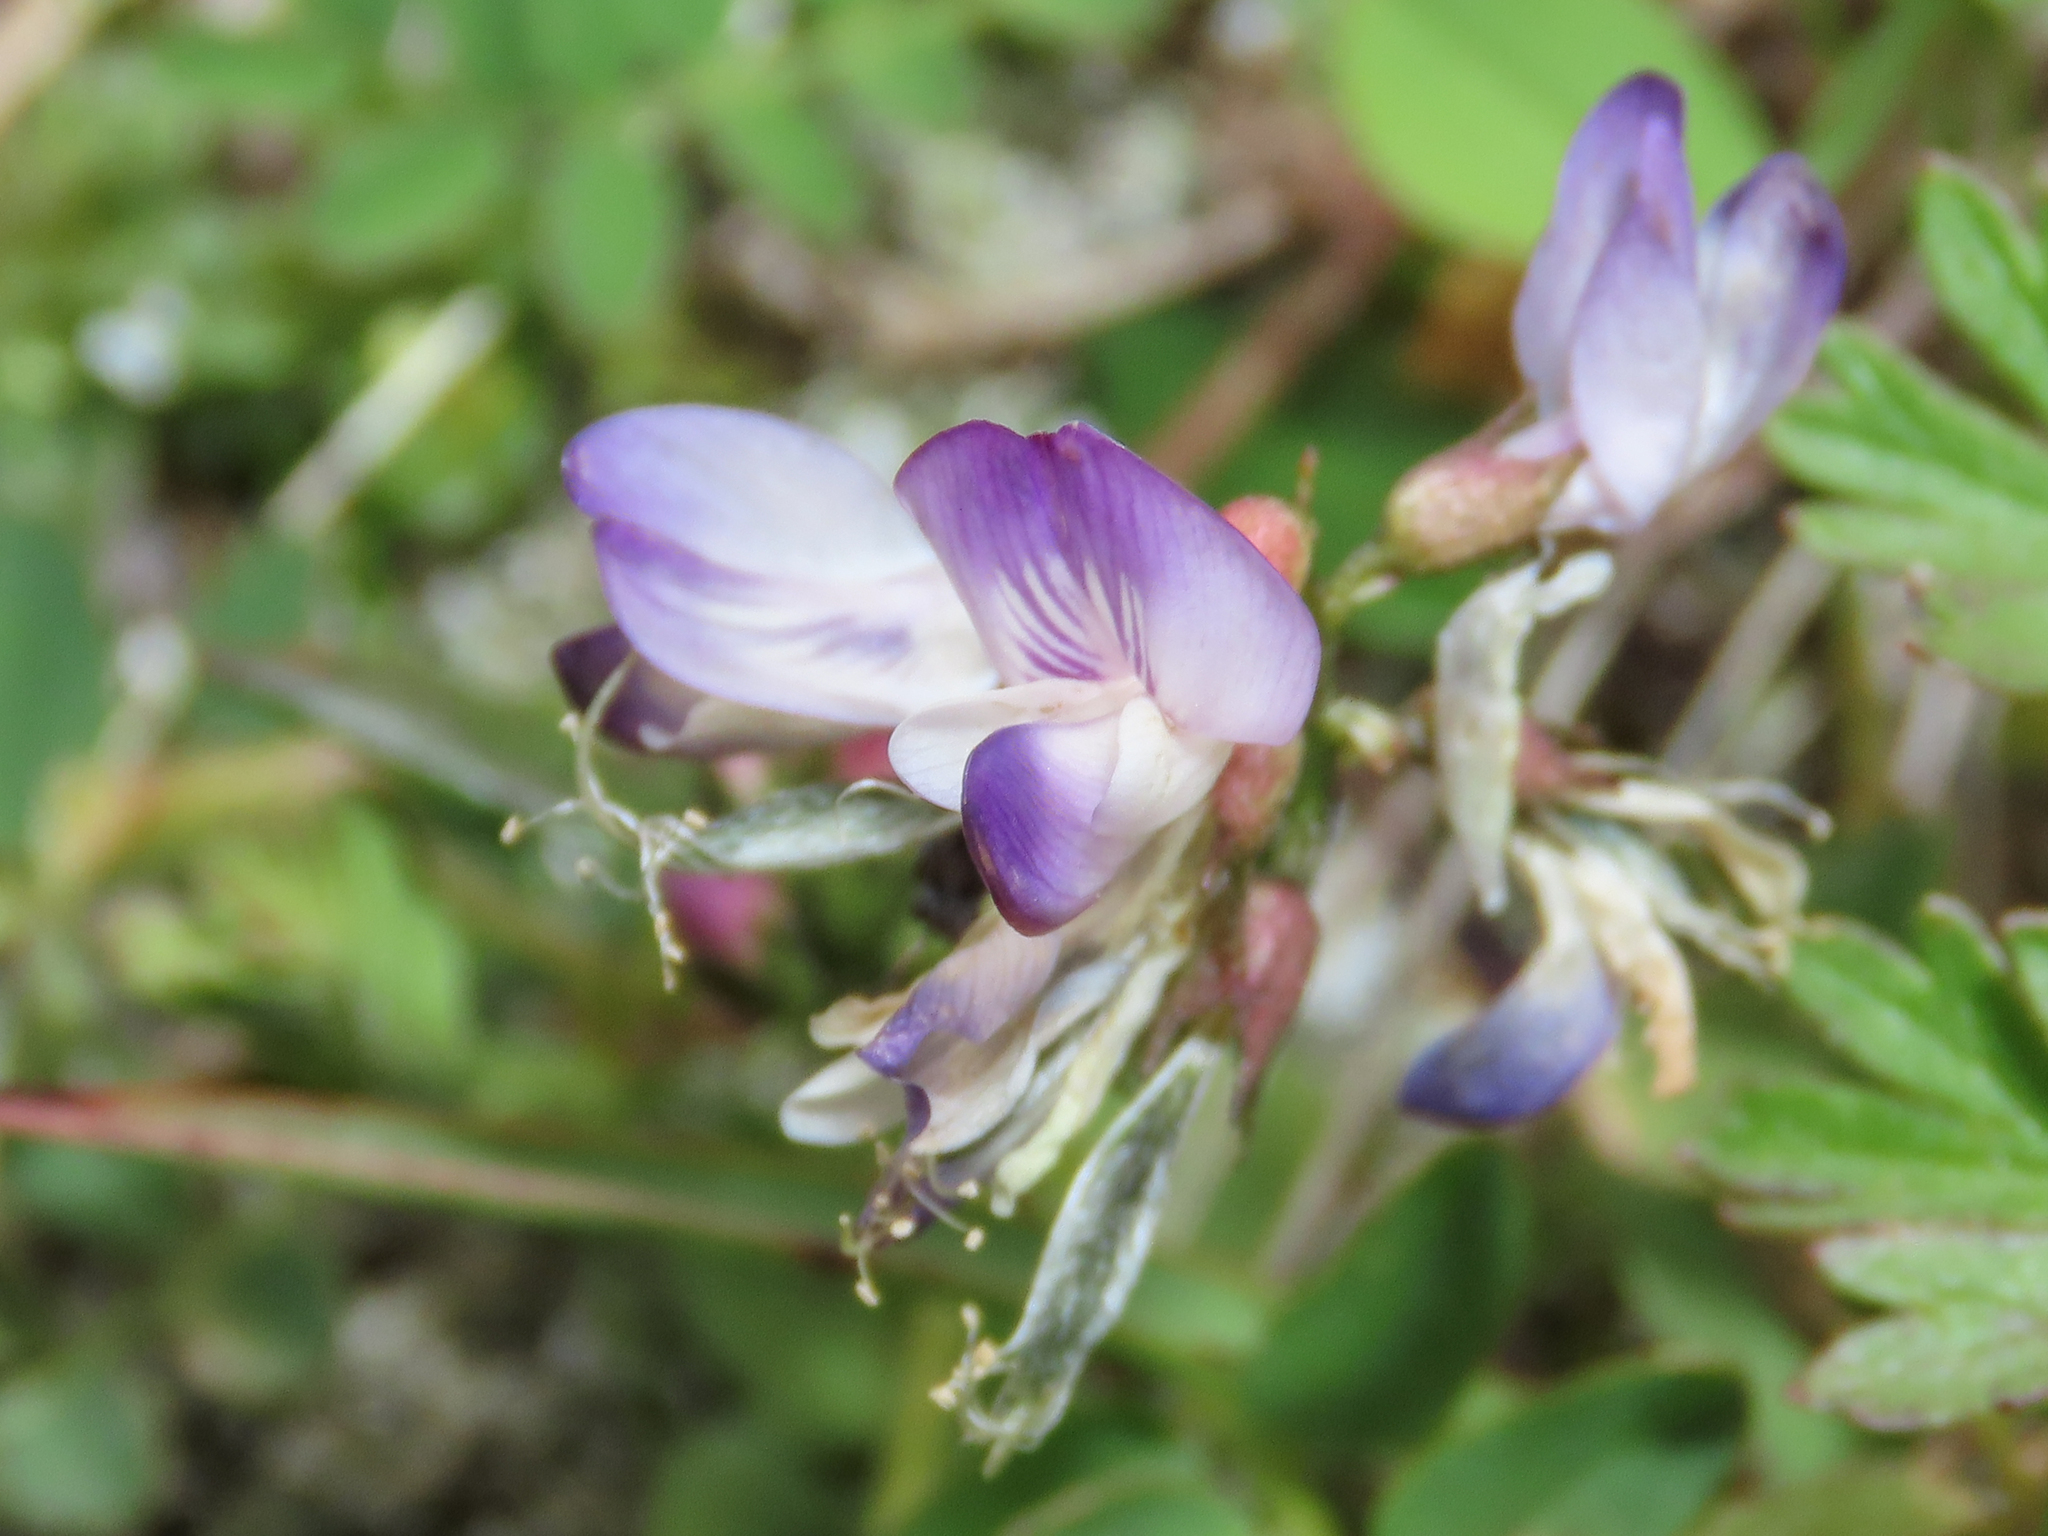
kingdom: Plantae
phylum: Tracheophyta
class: Magnoliopsida
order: Fabales
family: Fabaceae
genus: Astragalus
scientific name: Astragalus alpinus
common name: Alpine milk-vetch
